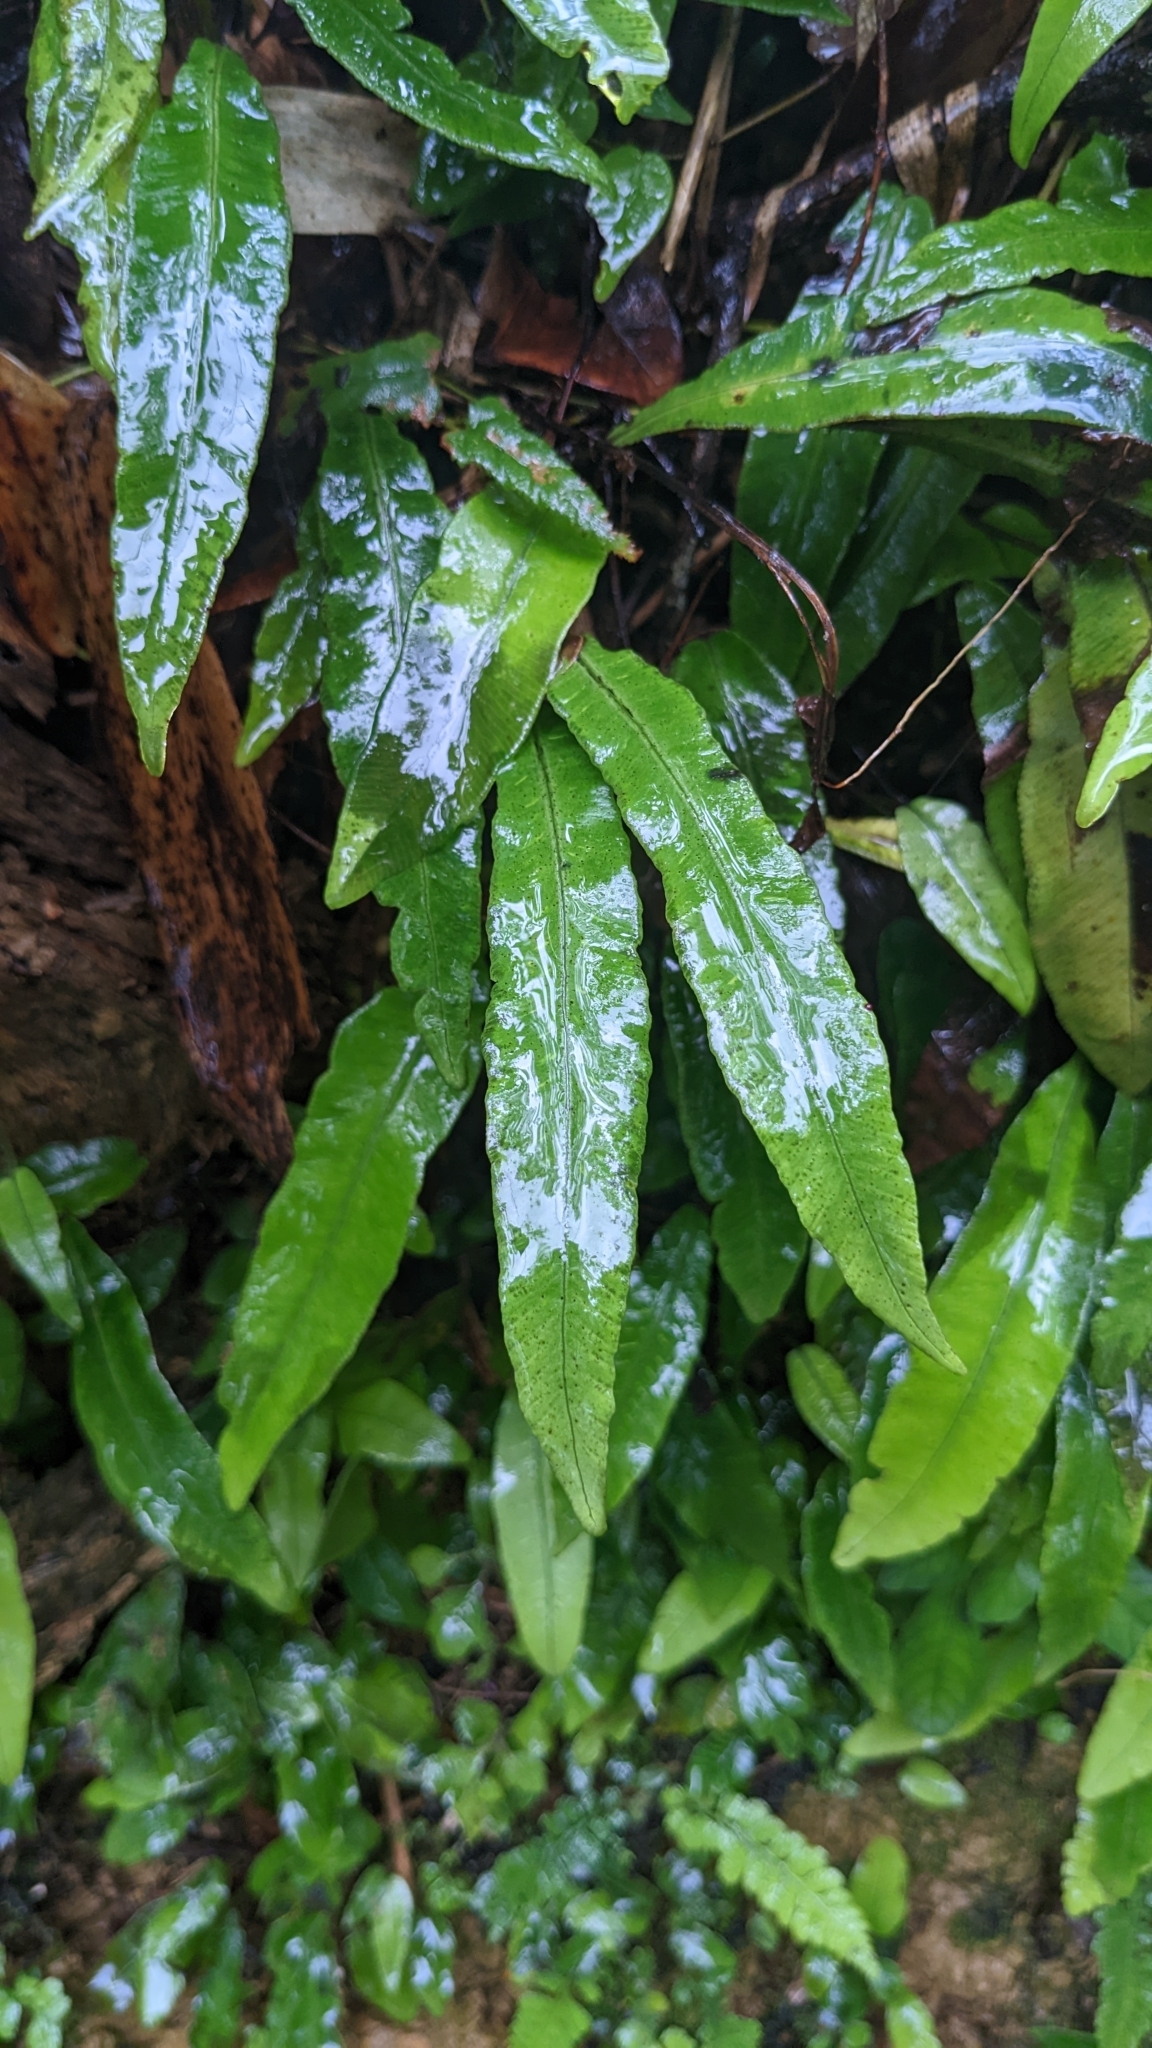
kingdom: Plantae
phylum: Tracheophyta
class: Polypodiopsida
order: Polypodiales
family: Athyriaceae
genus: Deparia
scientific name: Deparia lancea
